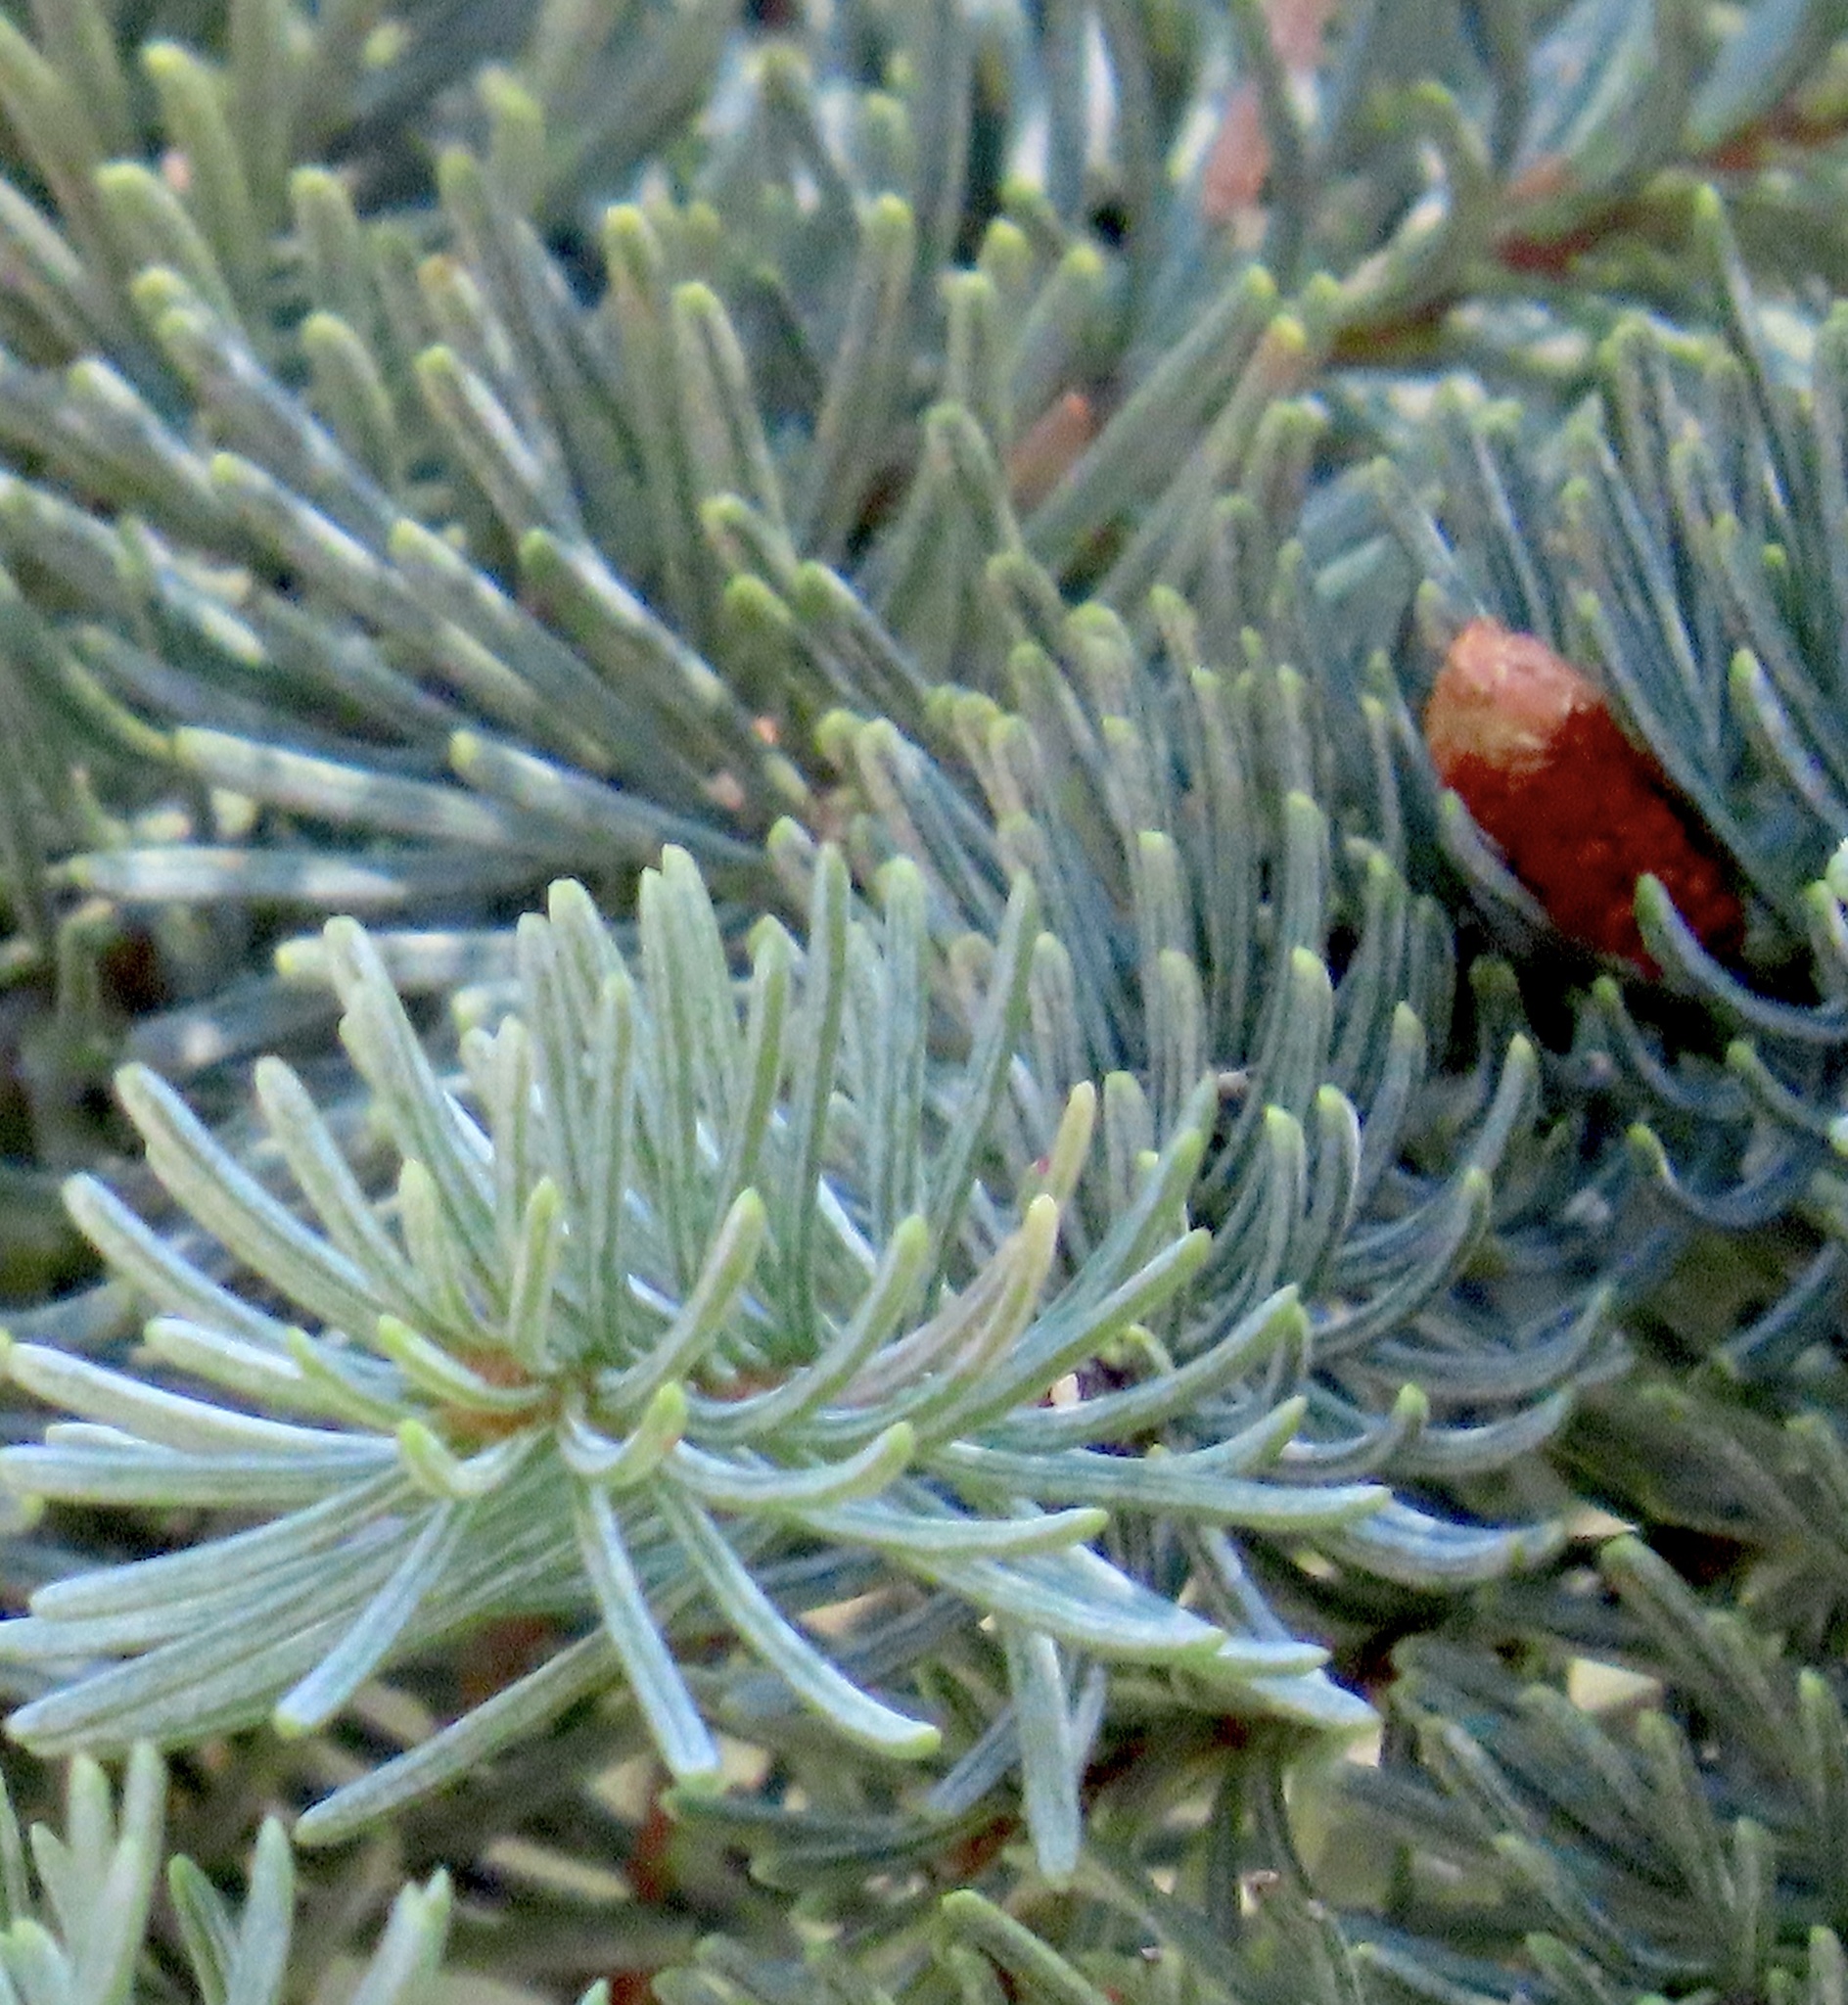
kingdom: Plantae
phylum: Tracheophyta
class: Pinopsida
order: Pinales
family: Pinaceae
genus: Abies
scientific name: Abies magnifica bis
